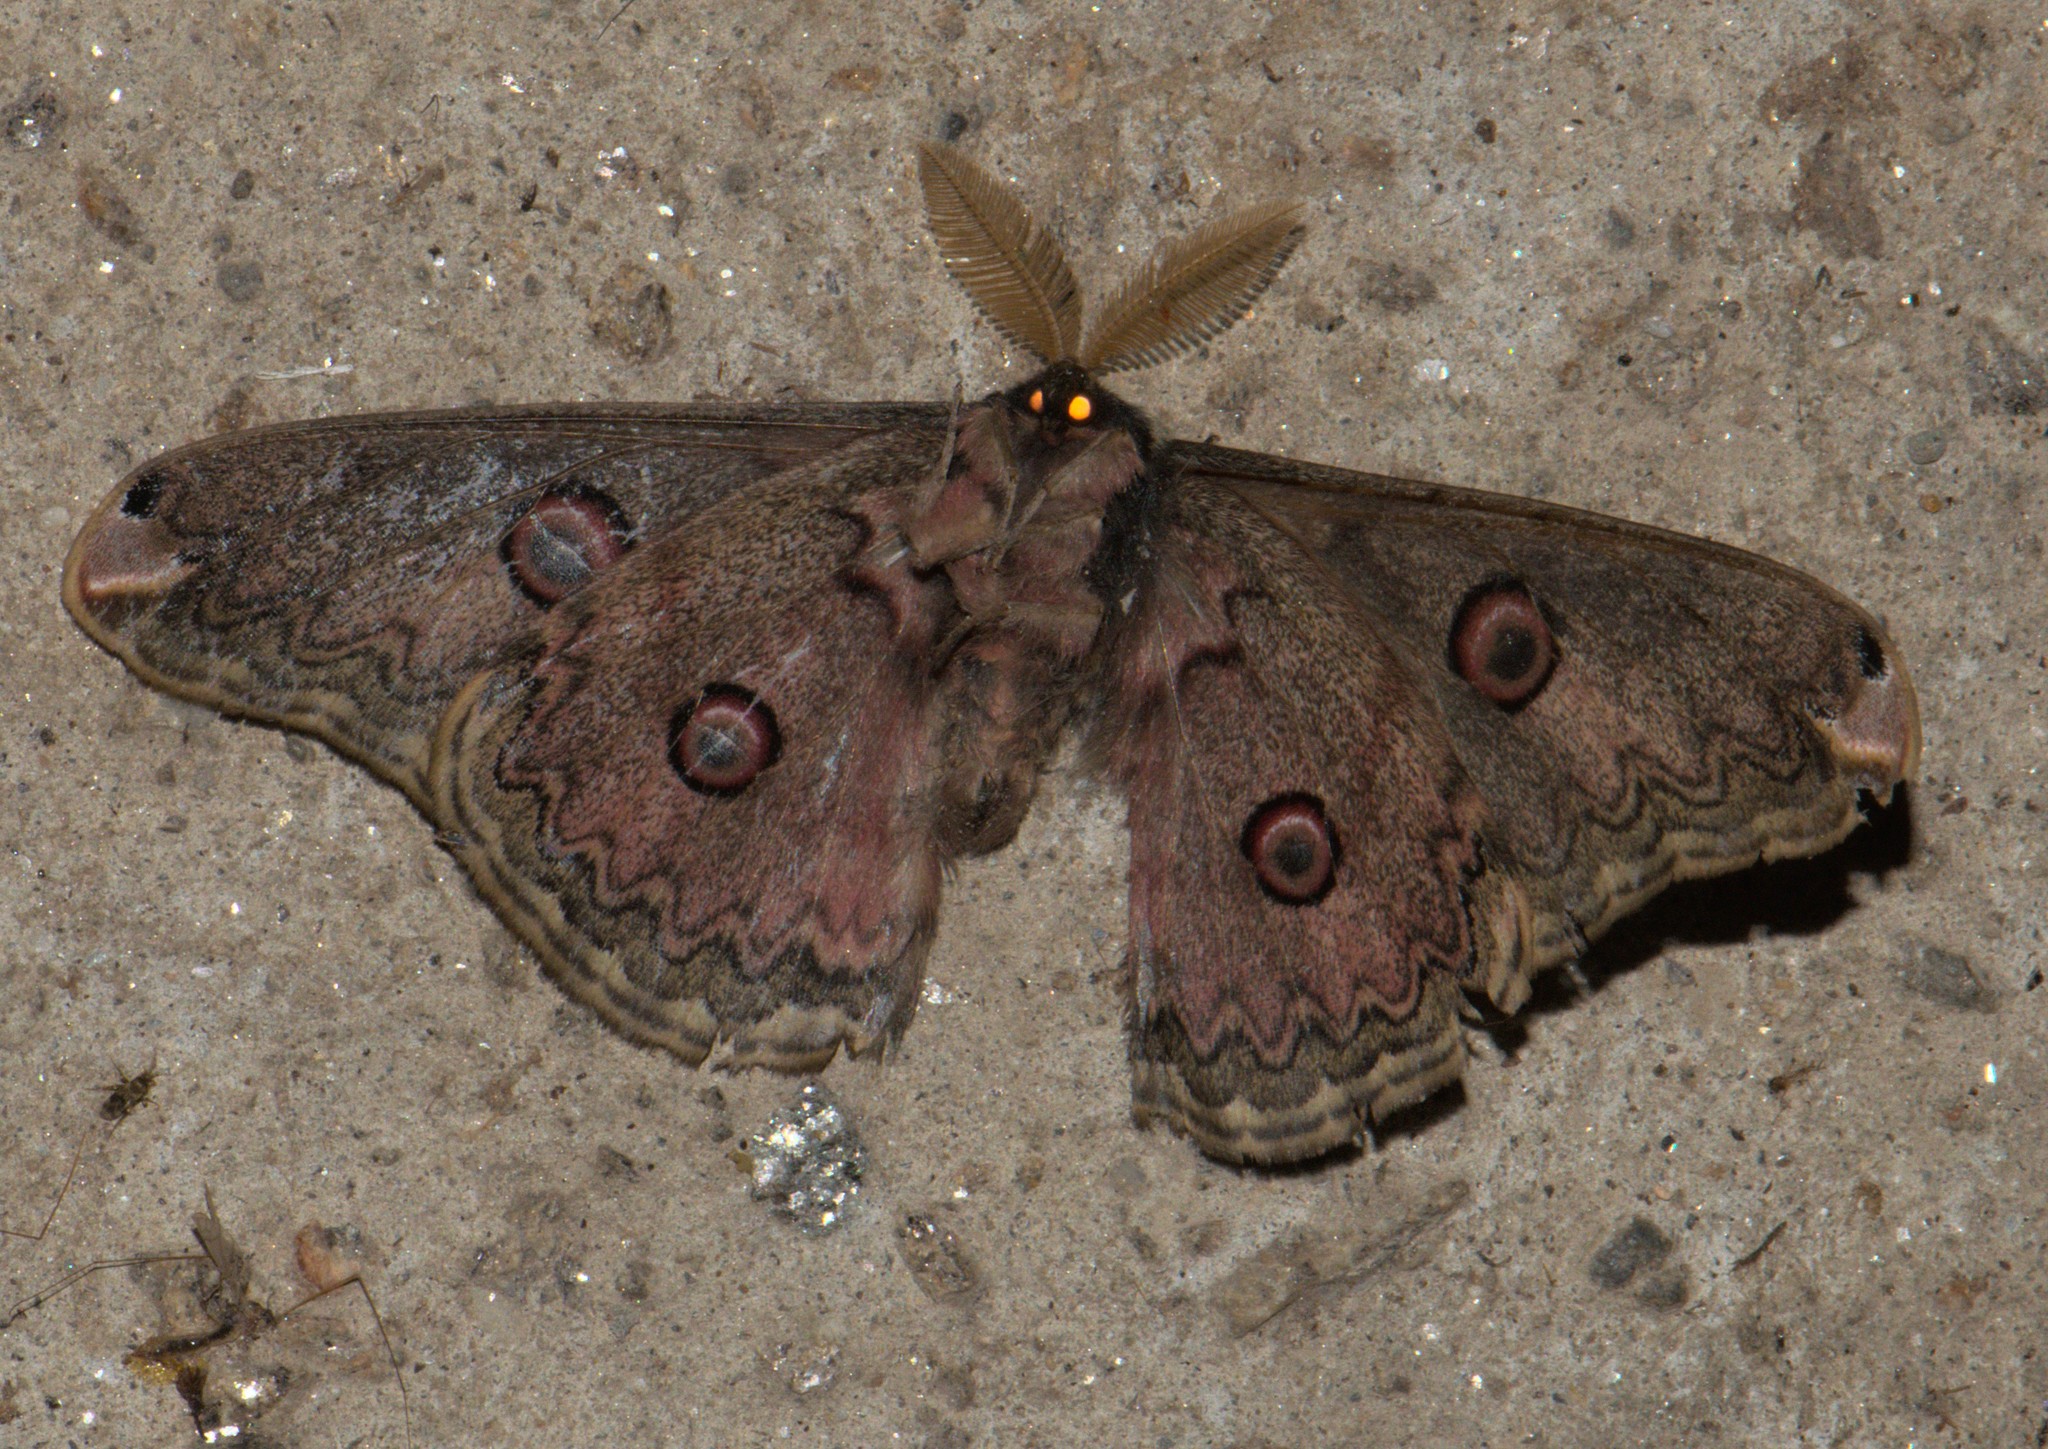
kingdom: Animalia
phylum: Arthropoda
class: Insecta
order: Lepidoptera
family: Saturniidae
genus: Saturnia
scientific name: Saturnia anna
